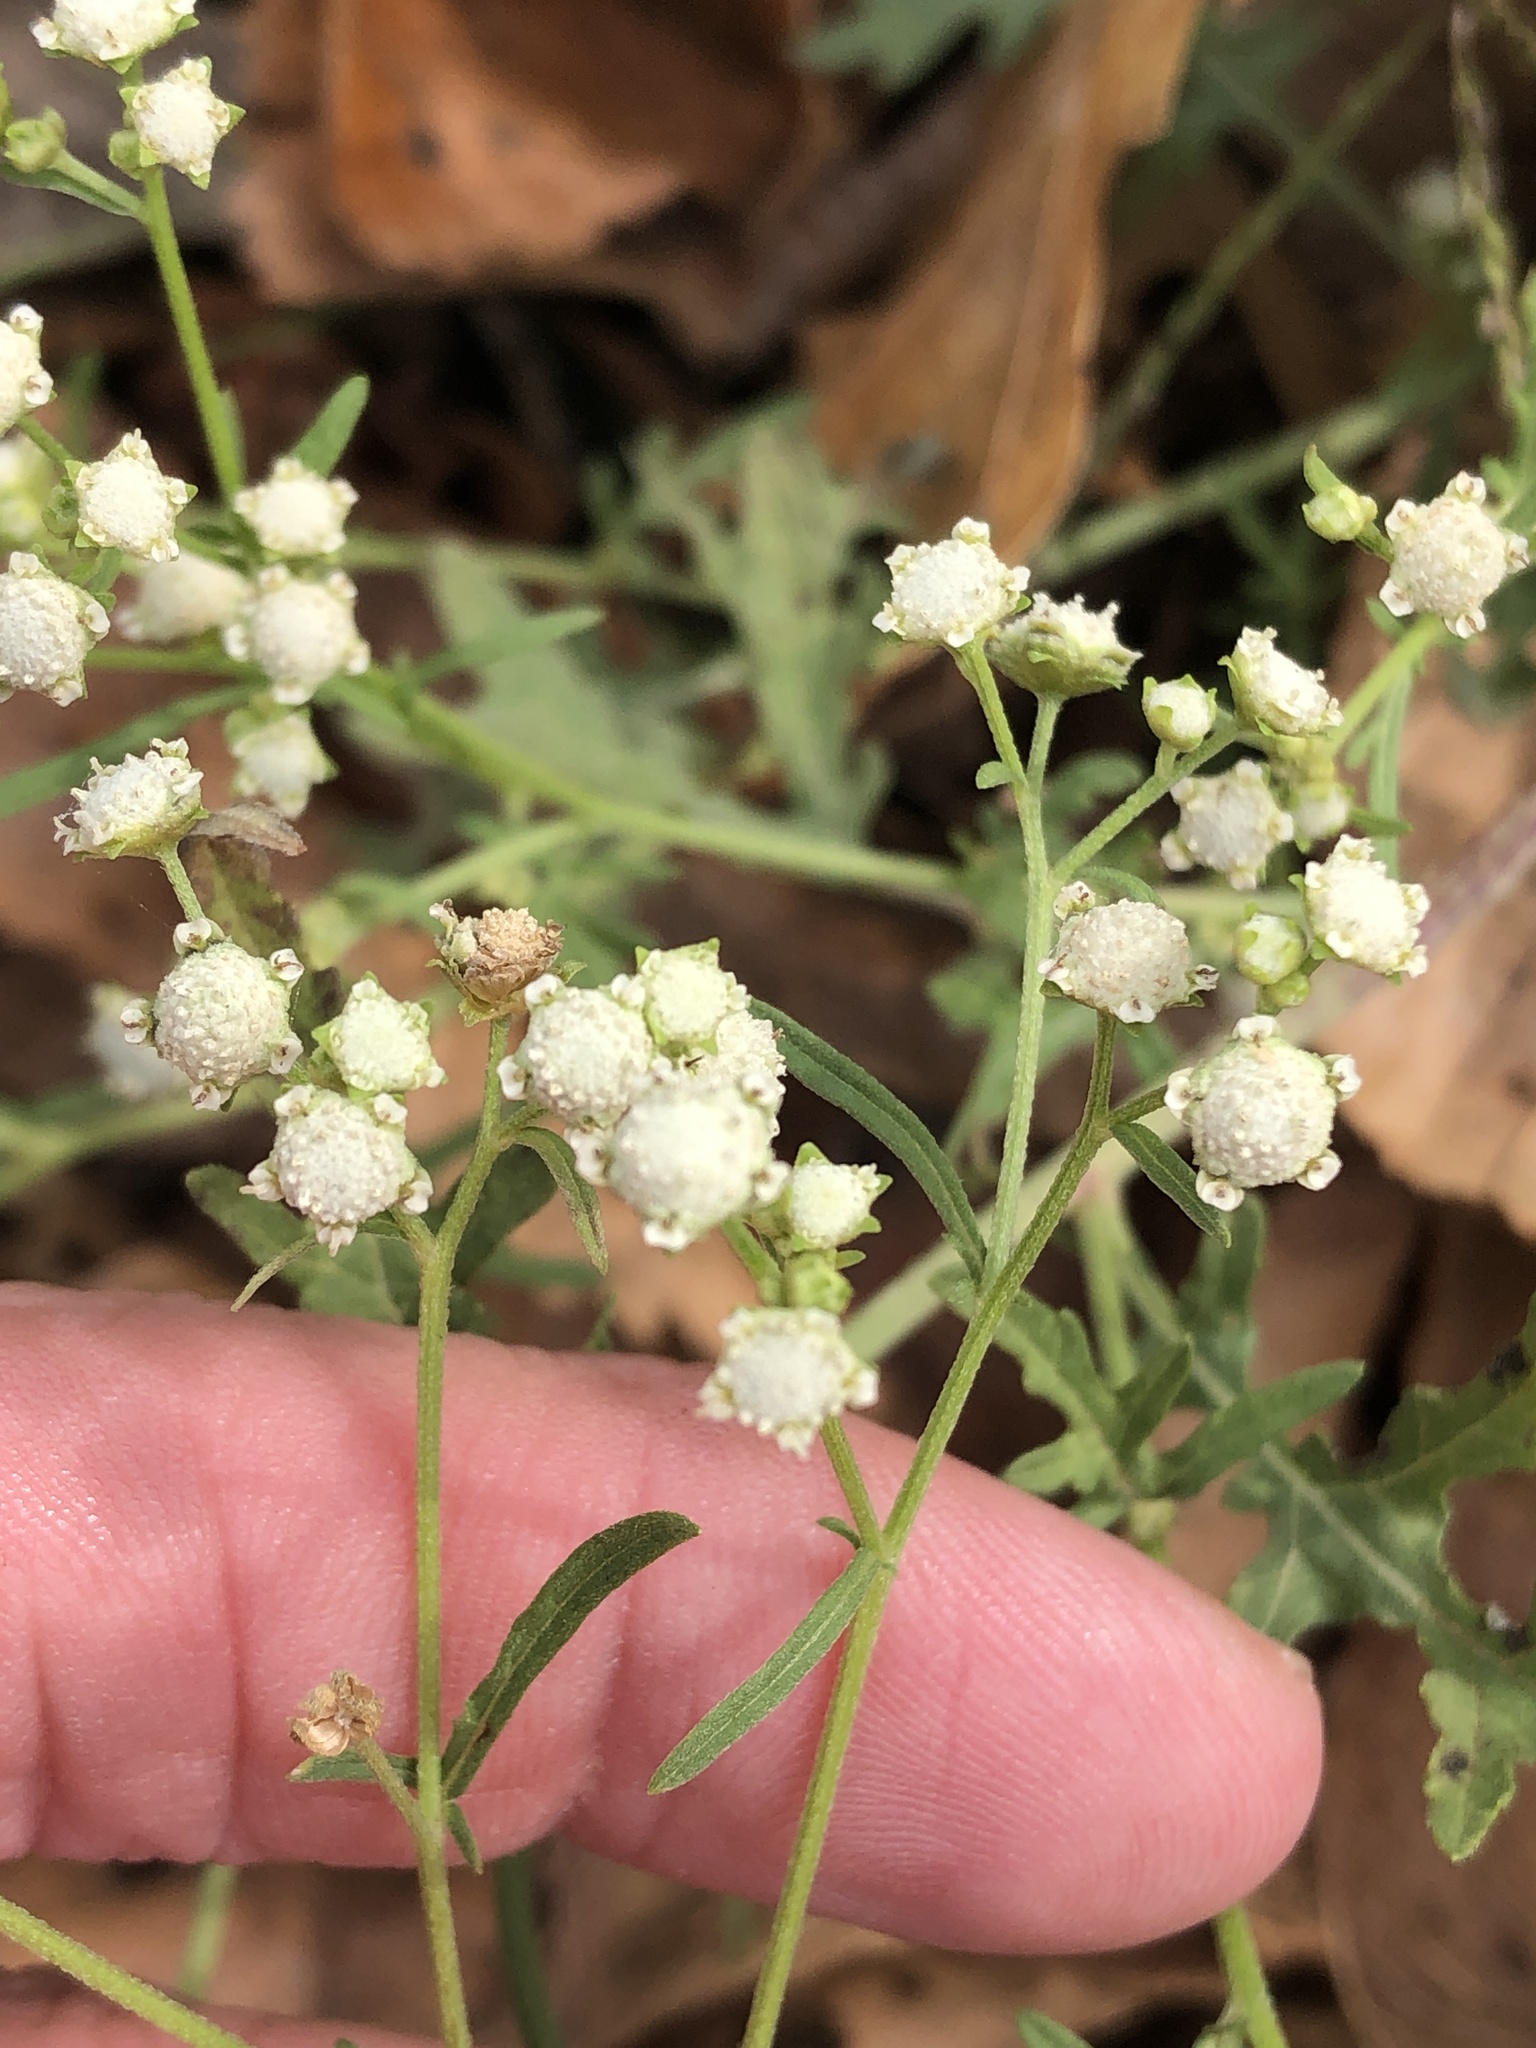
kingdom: Plantae
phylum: Tracheophyta
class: Magnoliopsida
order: Asterales
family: Asteraceae
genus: Parthenium
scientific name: Parthenium hysterophorus
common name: Santa maria feverfew
